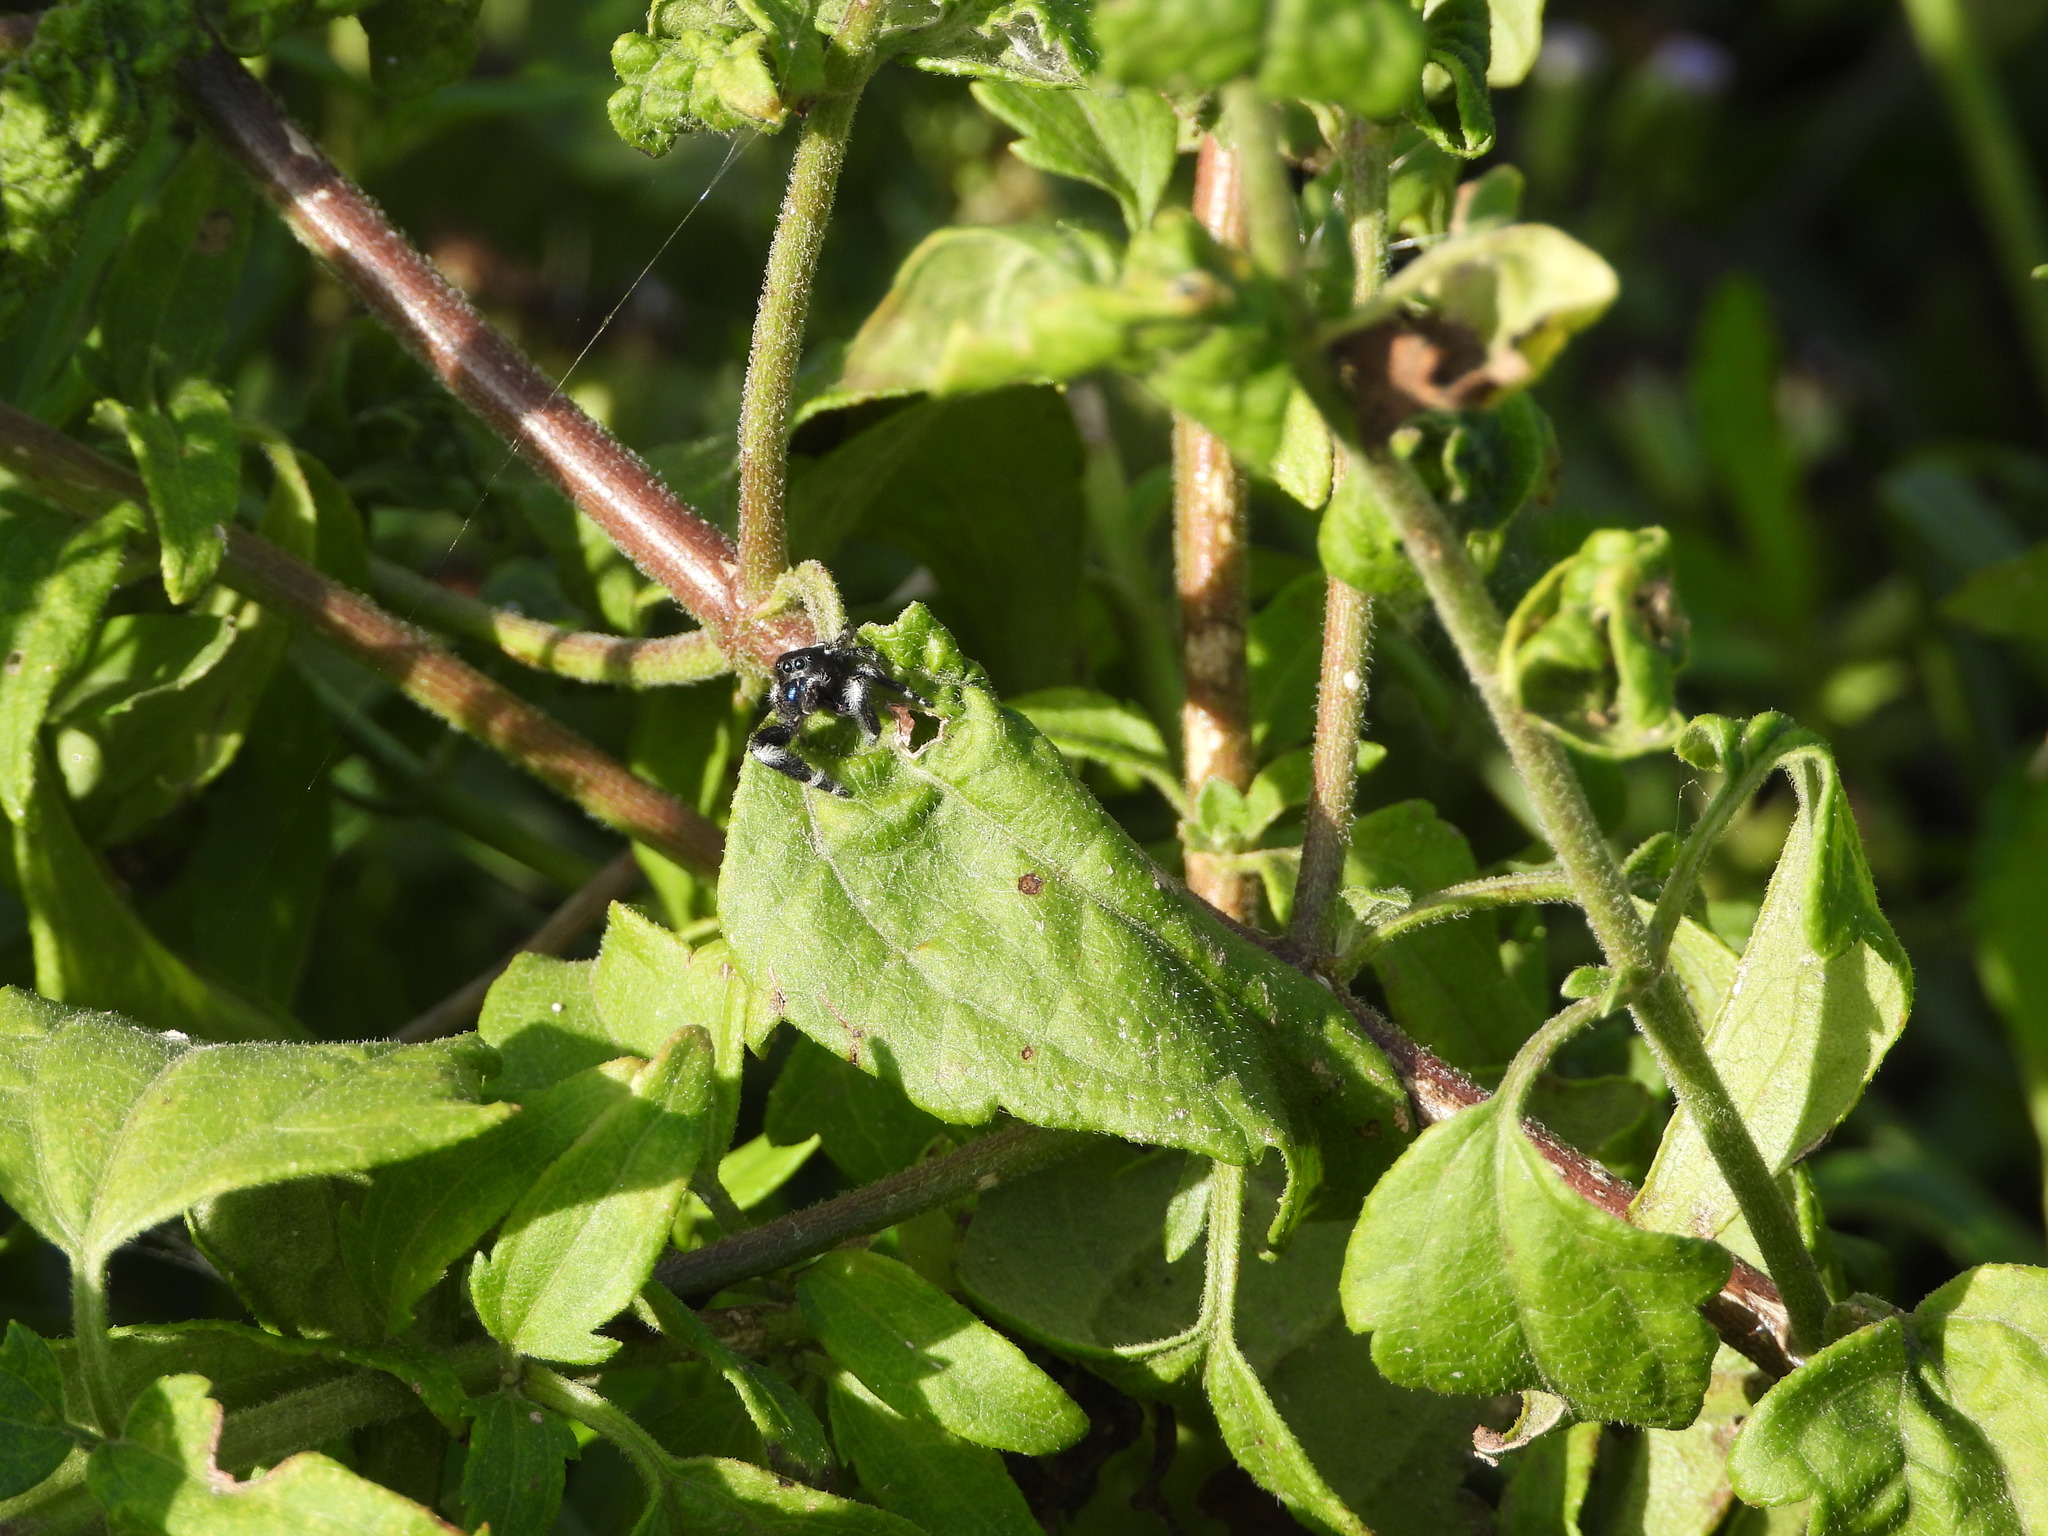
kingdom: Animalia
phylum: Arthropoda
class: Arachnida
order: Araneae
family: Salticidae
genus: Phidippus
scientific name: Phidippus audax
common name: Bold jumper
